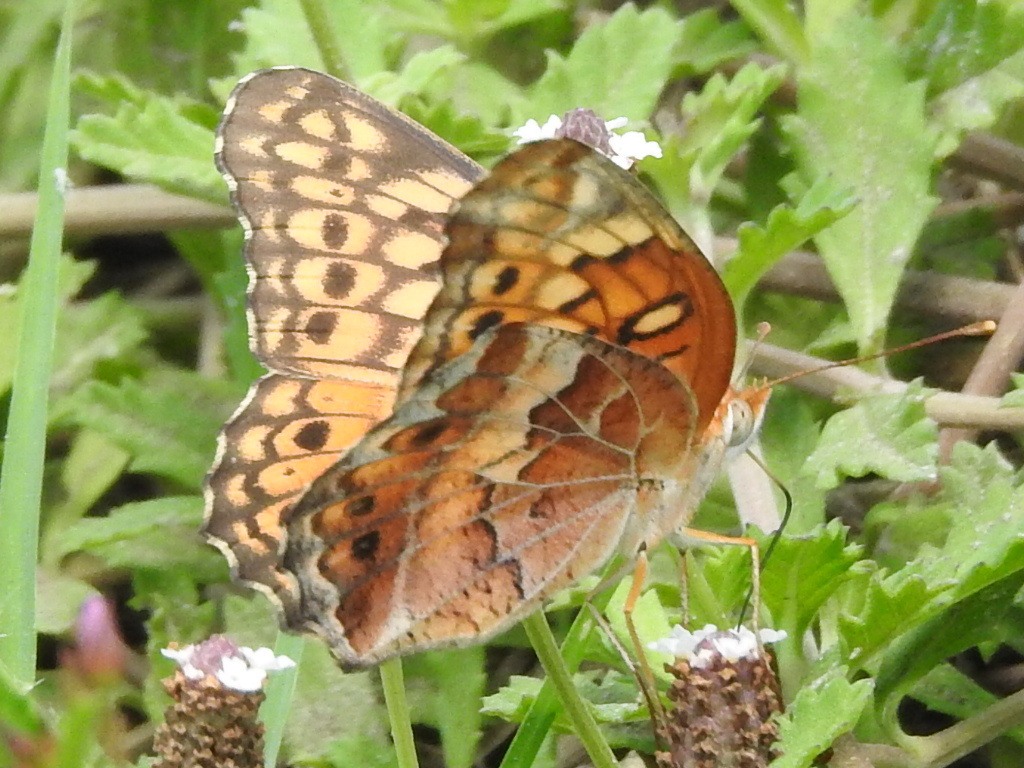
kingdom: Animalia
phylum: Arthropoda
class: Insecta
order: Lepidoptera
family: Nymphalidae
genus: Euptoieta
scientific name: Euptoieta claudia
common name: Variegated fritillary
